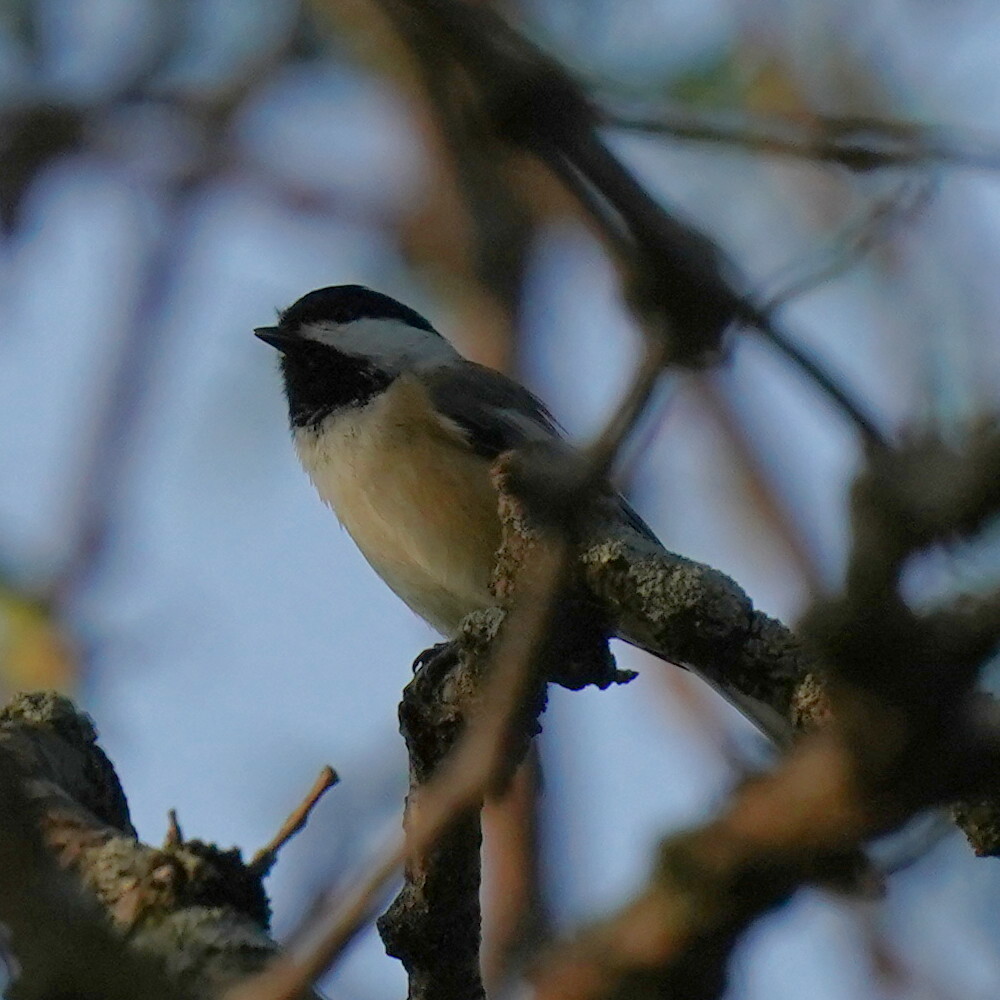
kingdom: Animalia
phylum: Chordata
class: Aves
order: Passeriformes
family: Paridae
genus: Poecile
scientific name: Poecile atricapillus
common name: Black-capped chickadee
